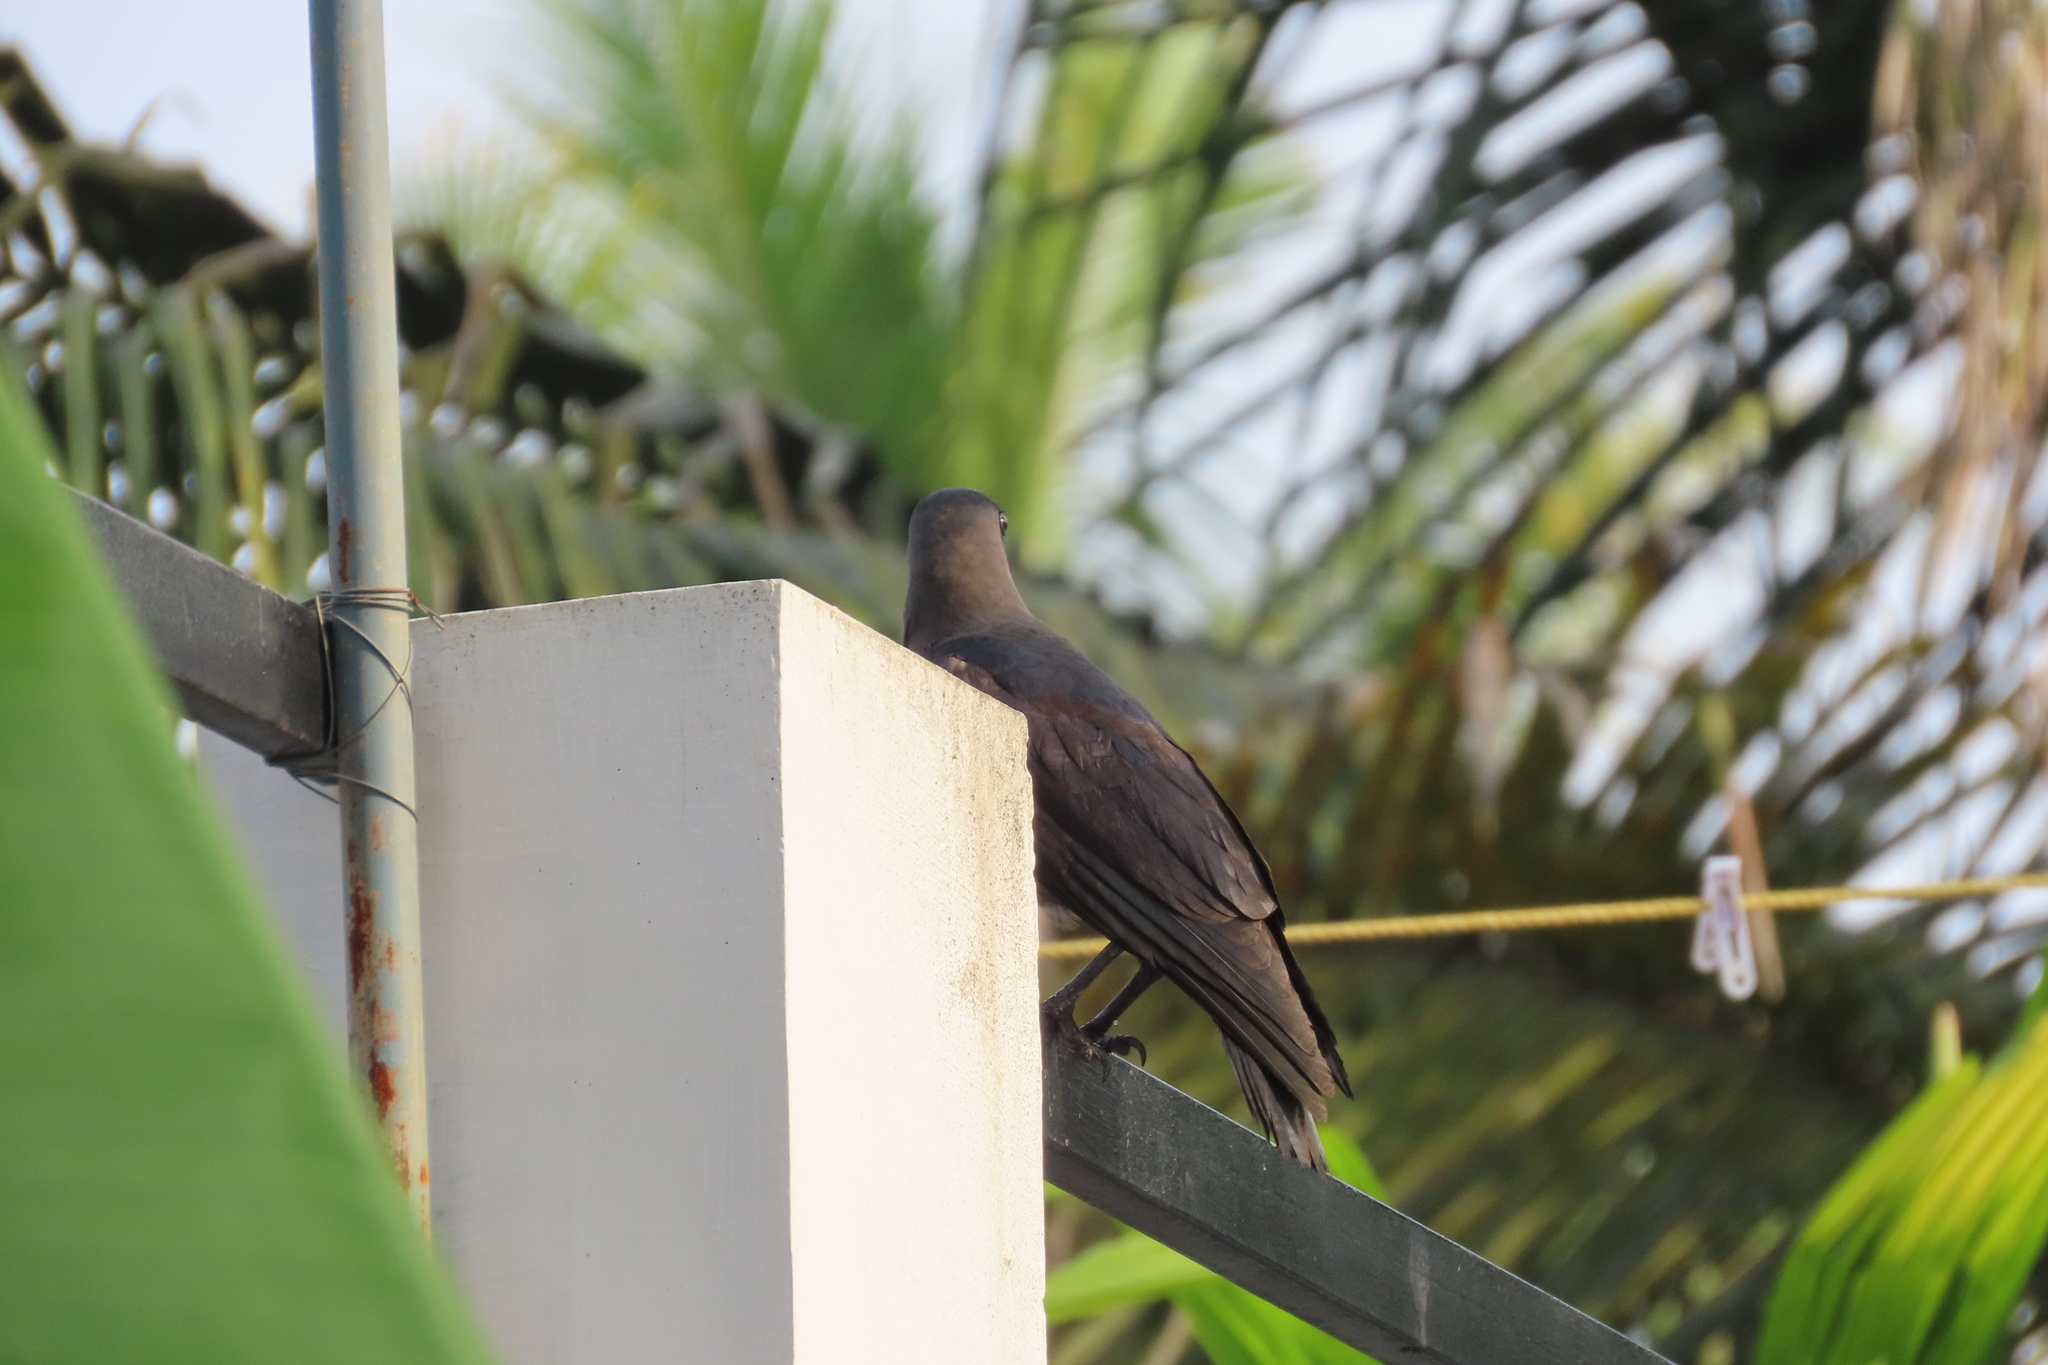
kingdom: Animalia
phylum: Chordata
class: Aves
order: Passeriformes
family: Corvidae
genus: Corvus
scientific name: Corvus splendens
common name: House crow
